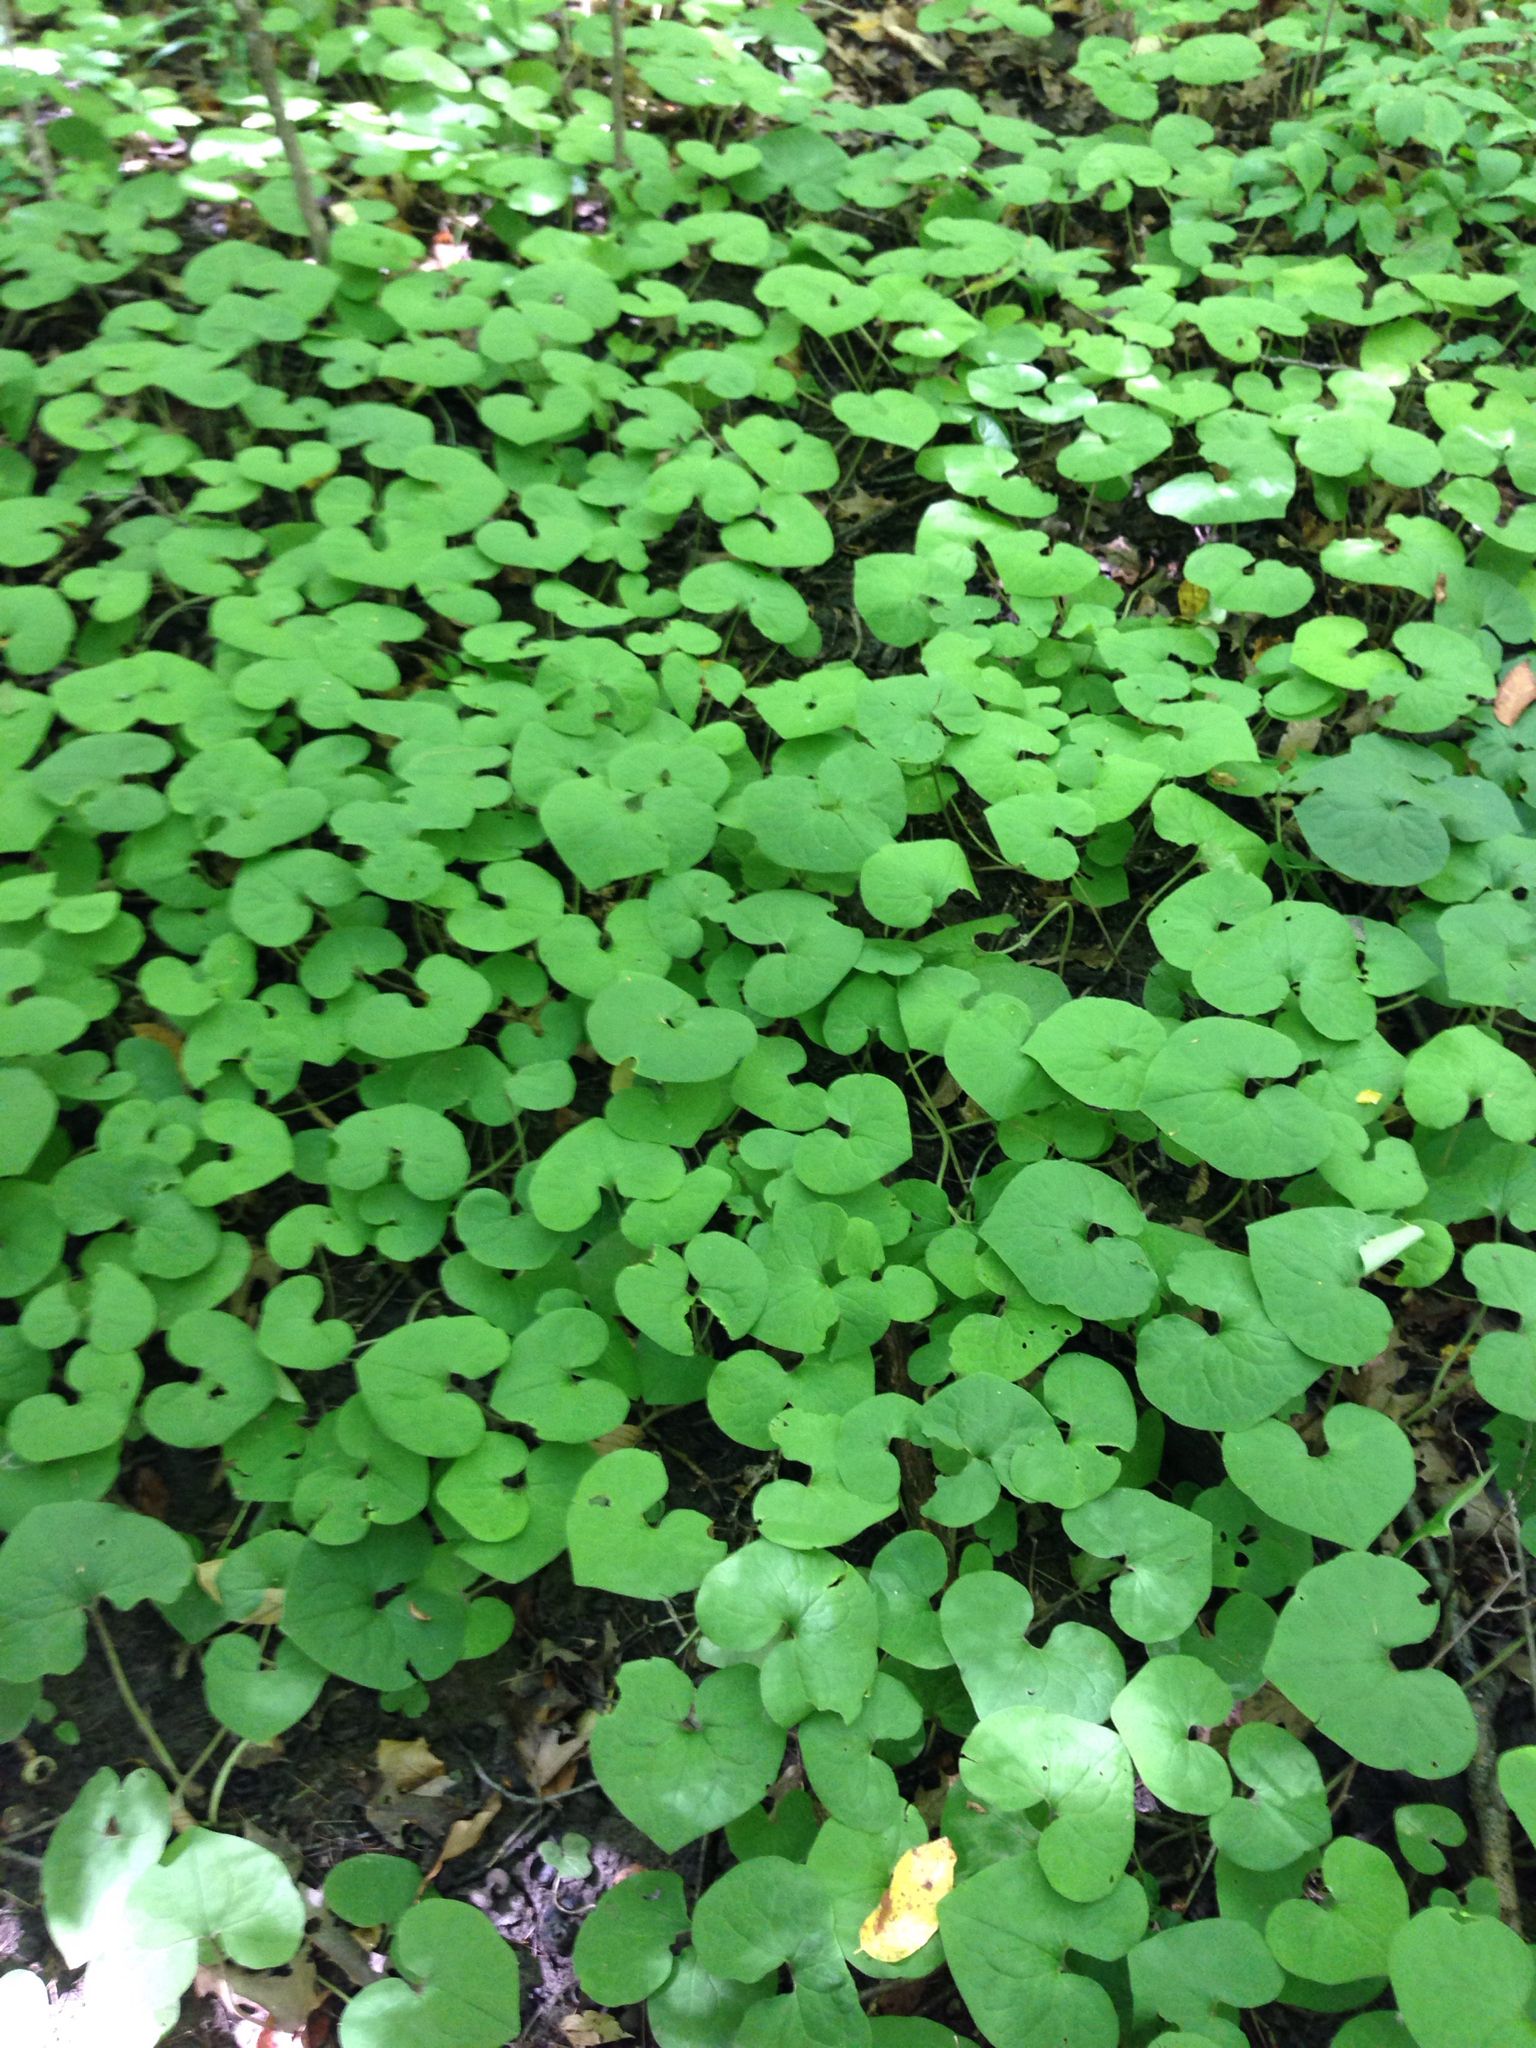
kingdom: Plantae
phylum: Tracheophyta
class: Magnoliopsida
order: Piperales
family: Aristolochiaceae
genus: Asarum
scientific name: Asarum canadense
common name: Wild ginger
